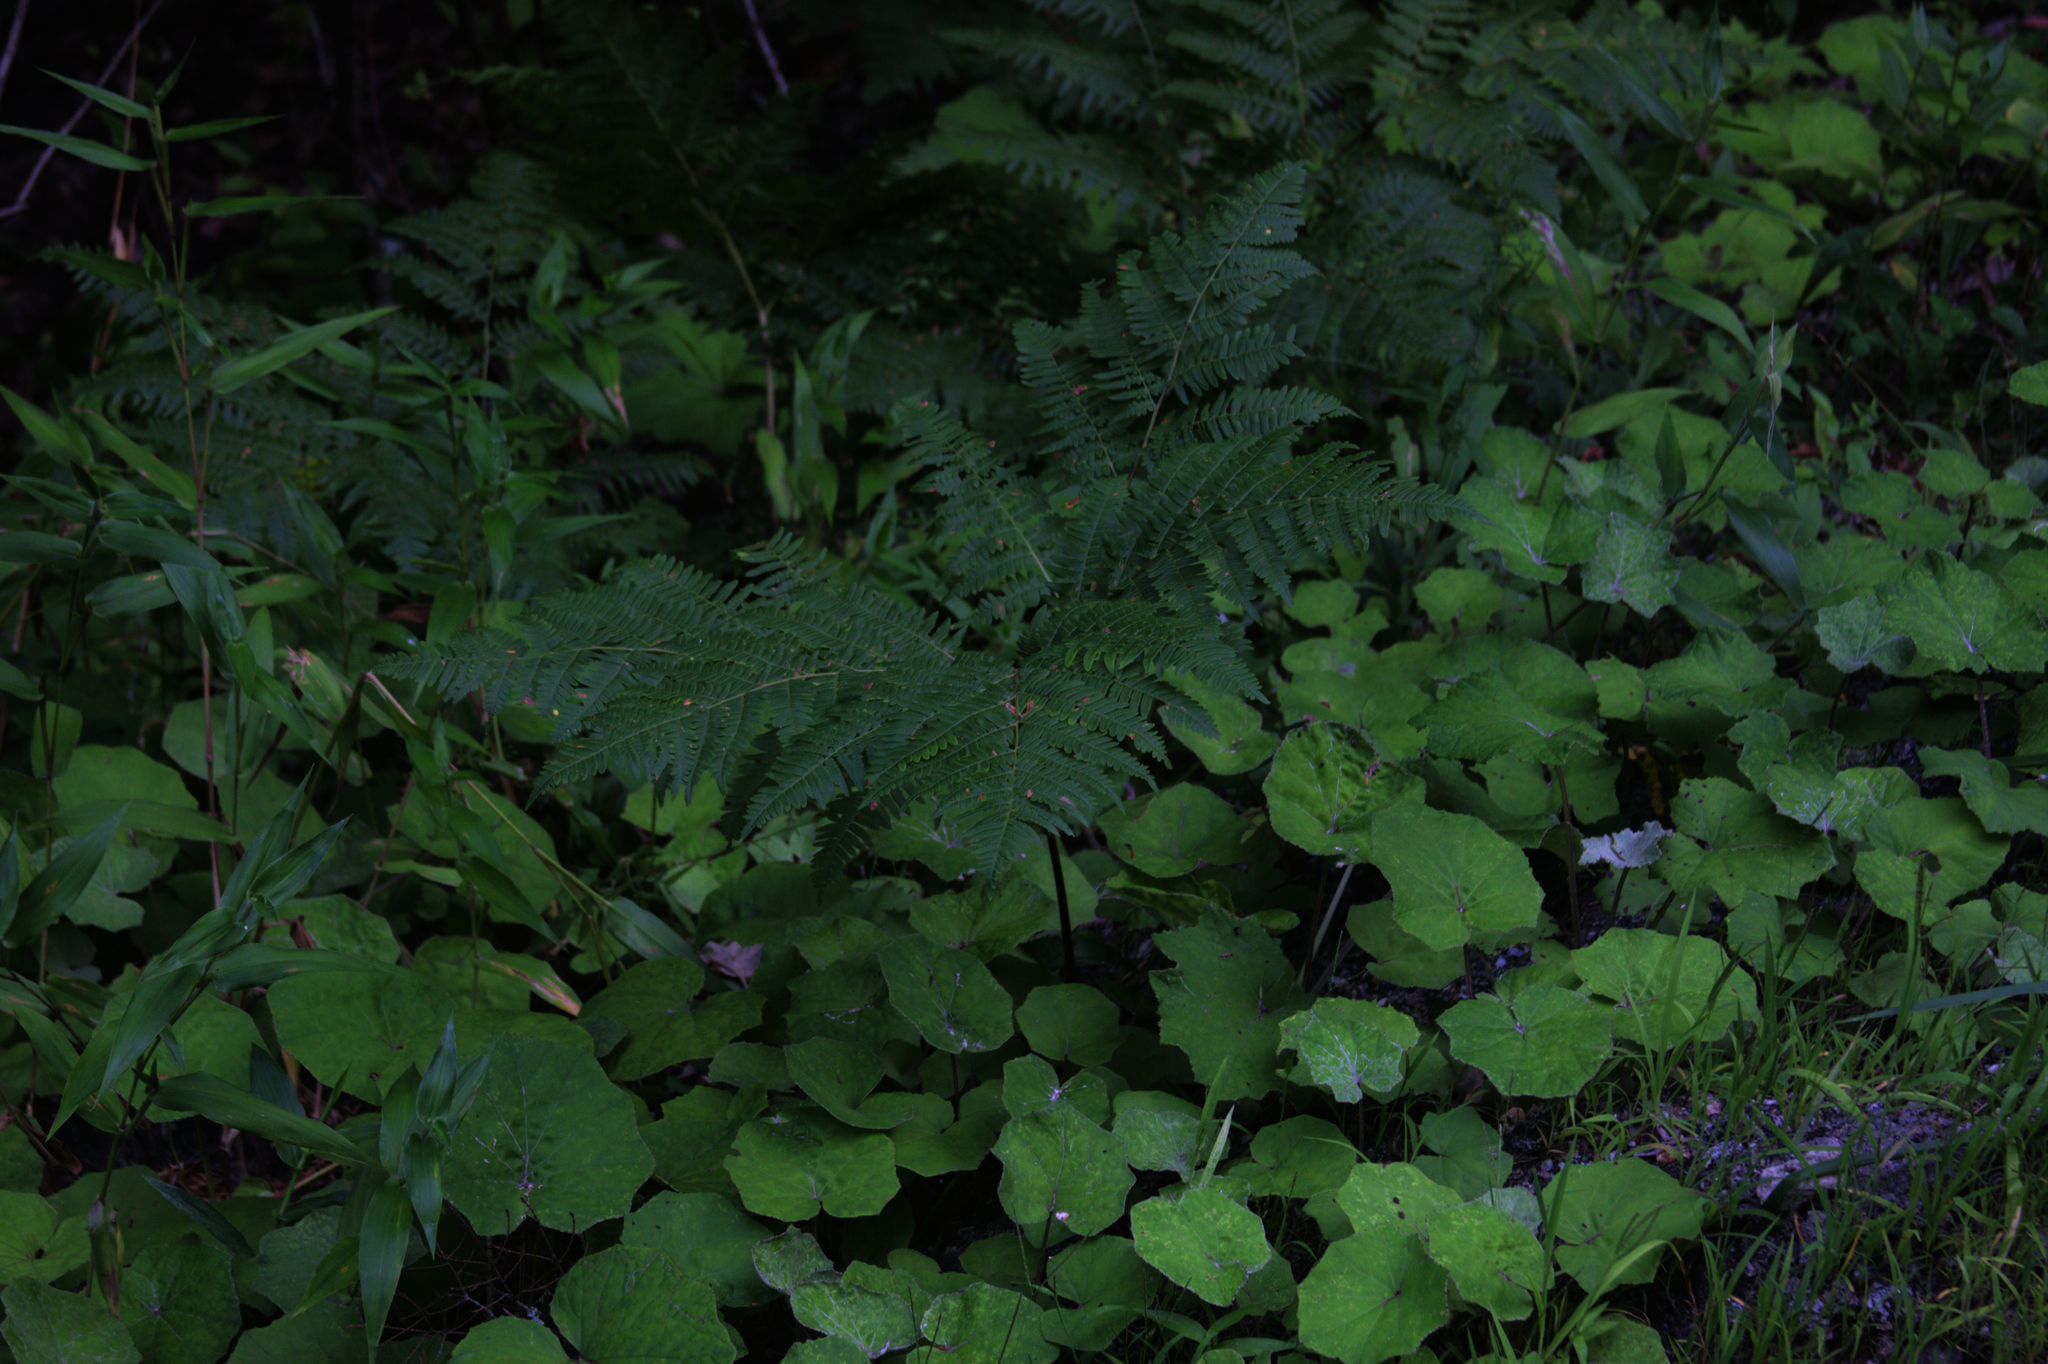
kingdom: Plantae
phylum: Tracheophyta
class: Polypodiopsida
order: Polypodiales
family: Dennstaedtiaceae
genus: Pteridium
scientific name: Pteridium aquilinum
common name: Bracken
